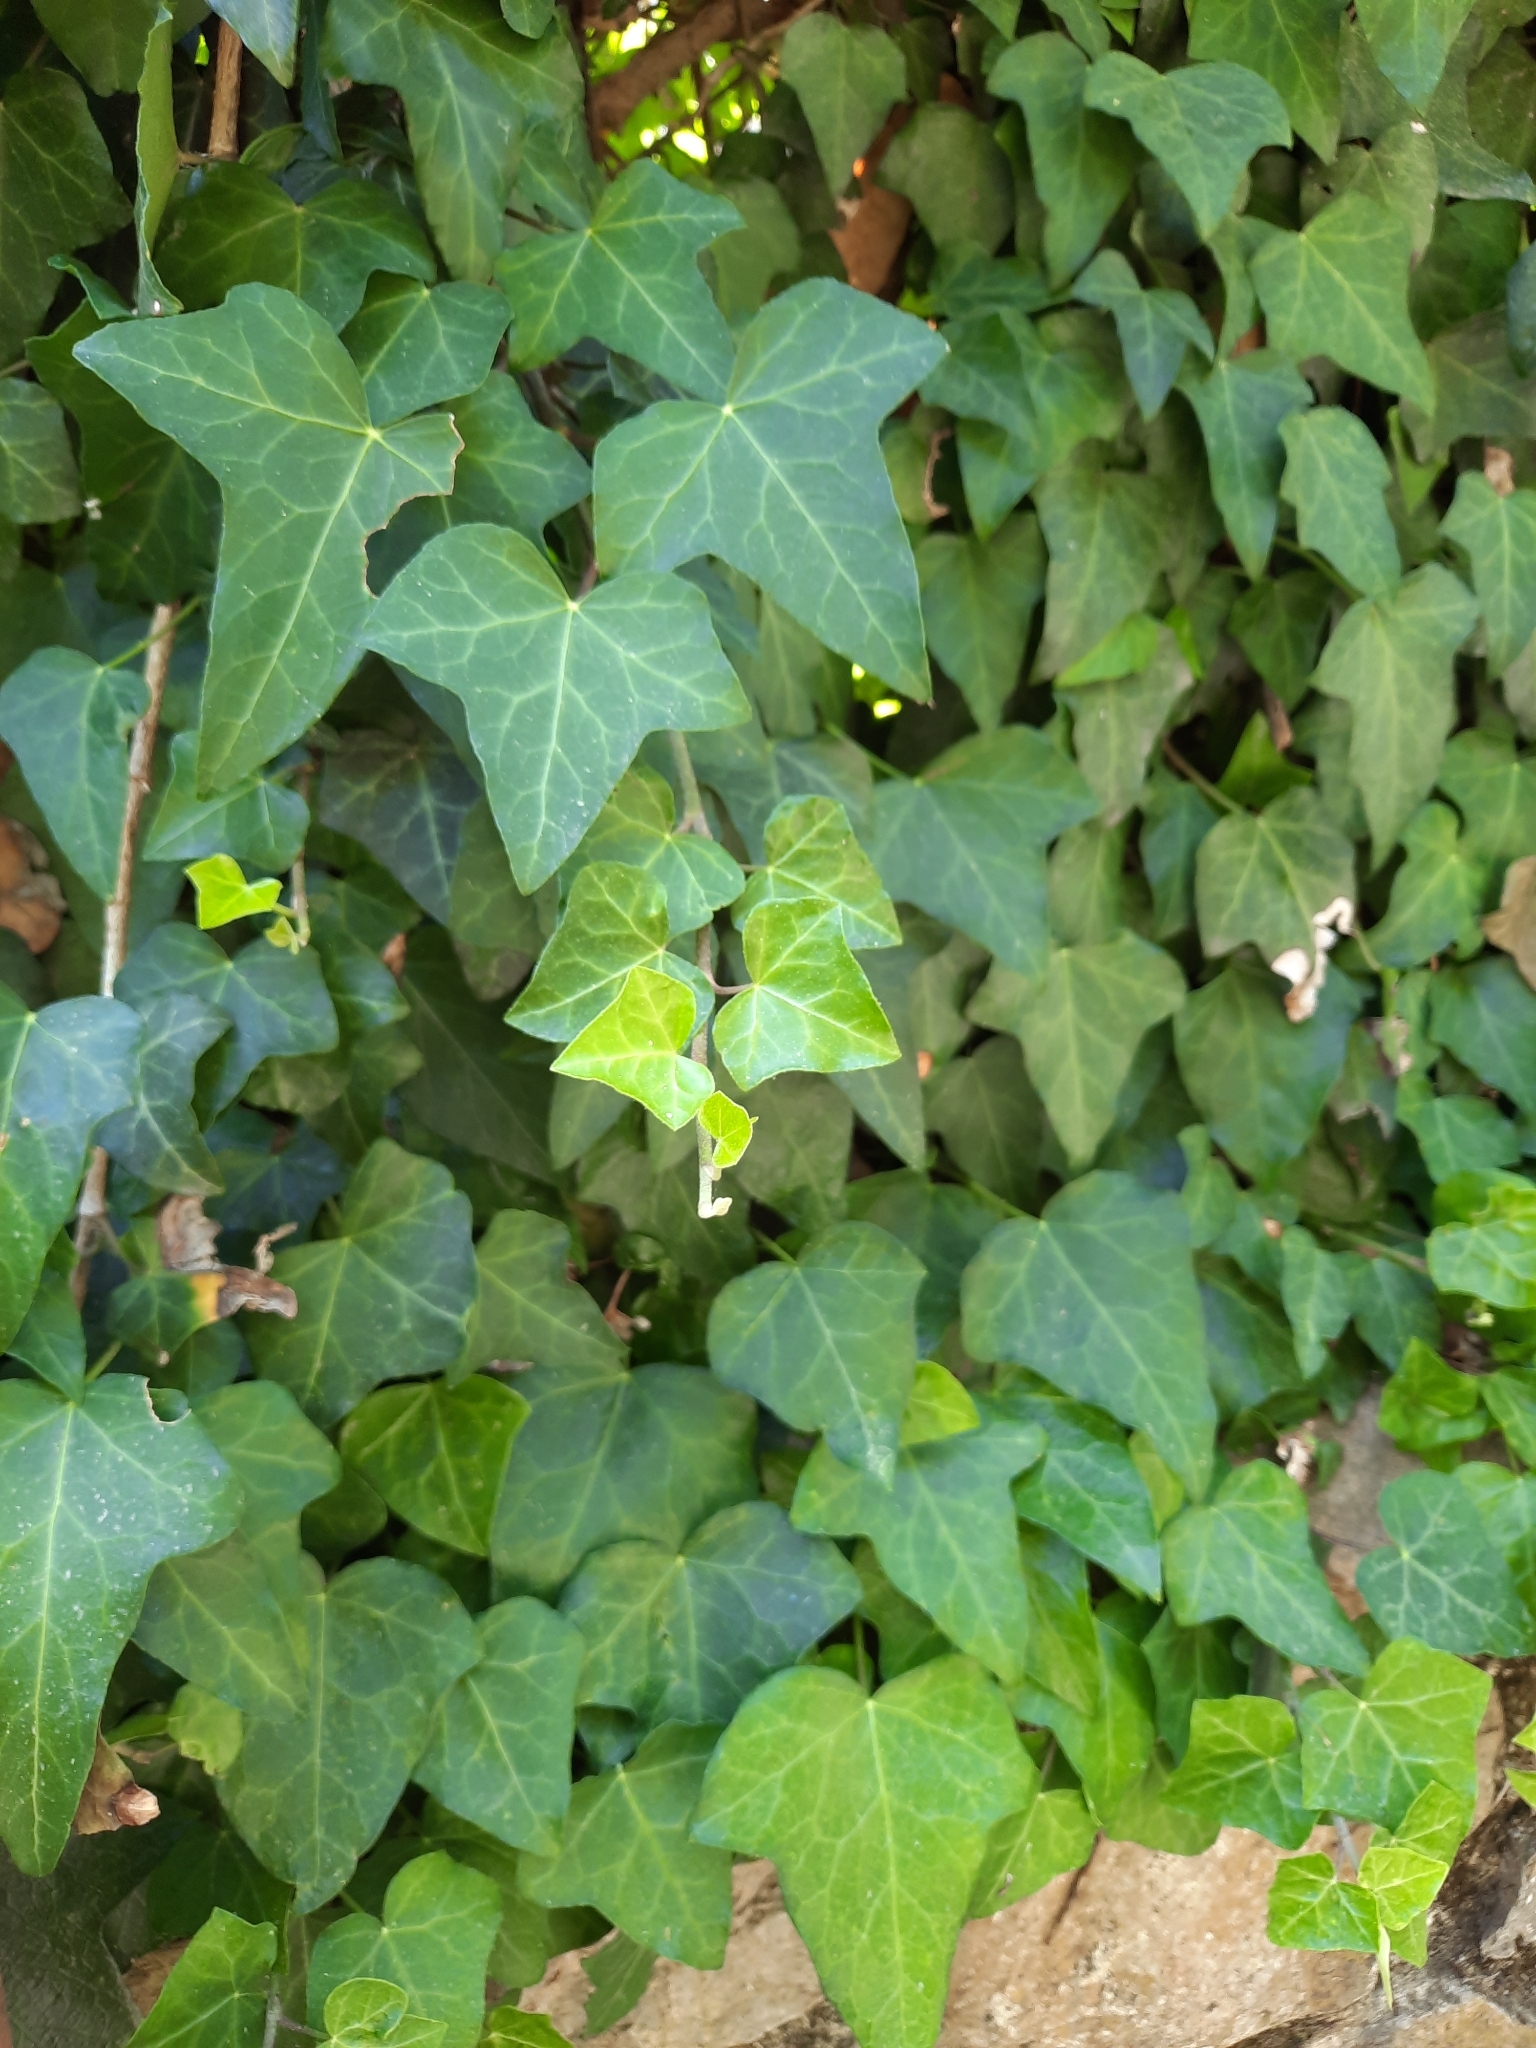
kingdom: Plantae
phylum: Tracheophyta
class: Magnoliopsida
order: Apiales
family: Araliaceae
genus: Hedera
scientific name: Hedera helix
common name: Ivy
